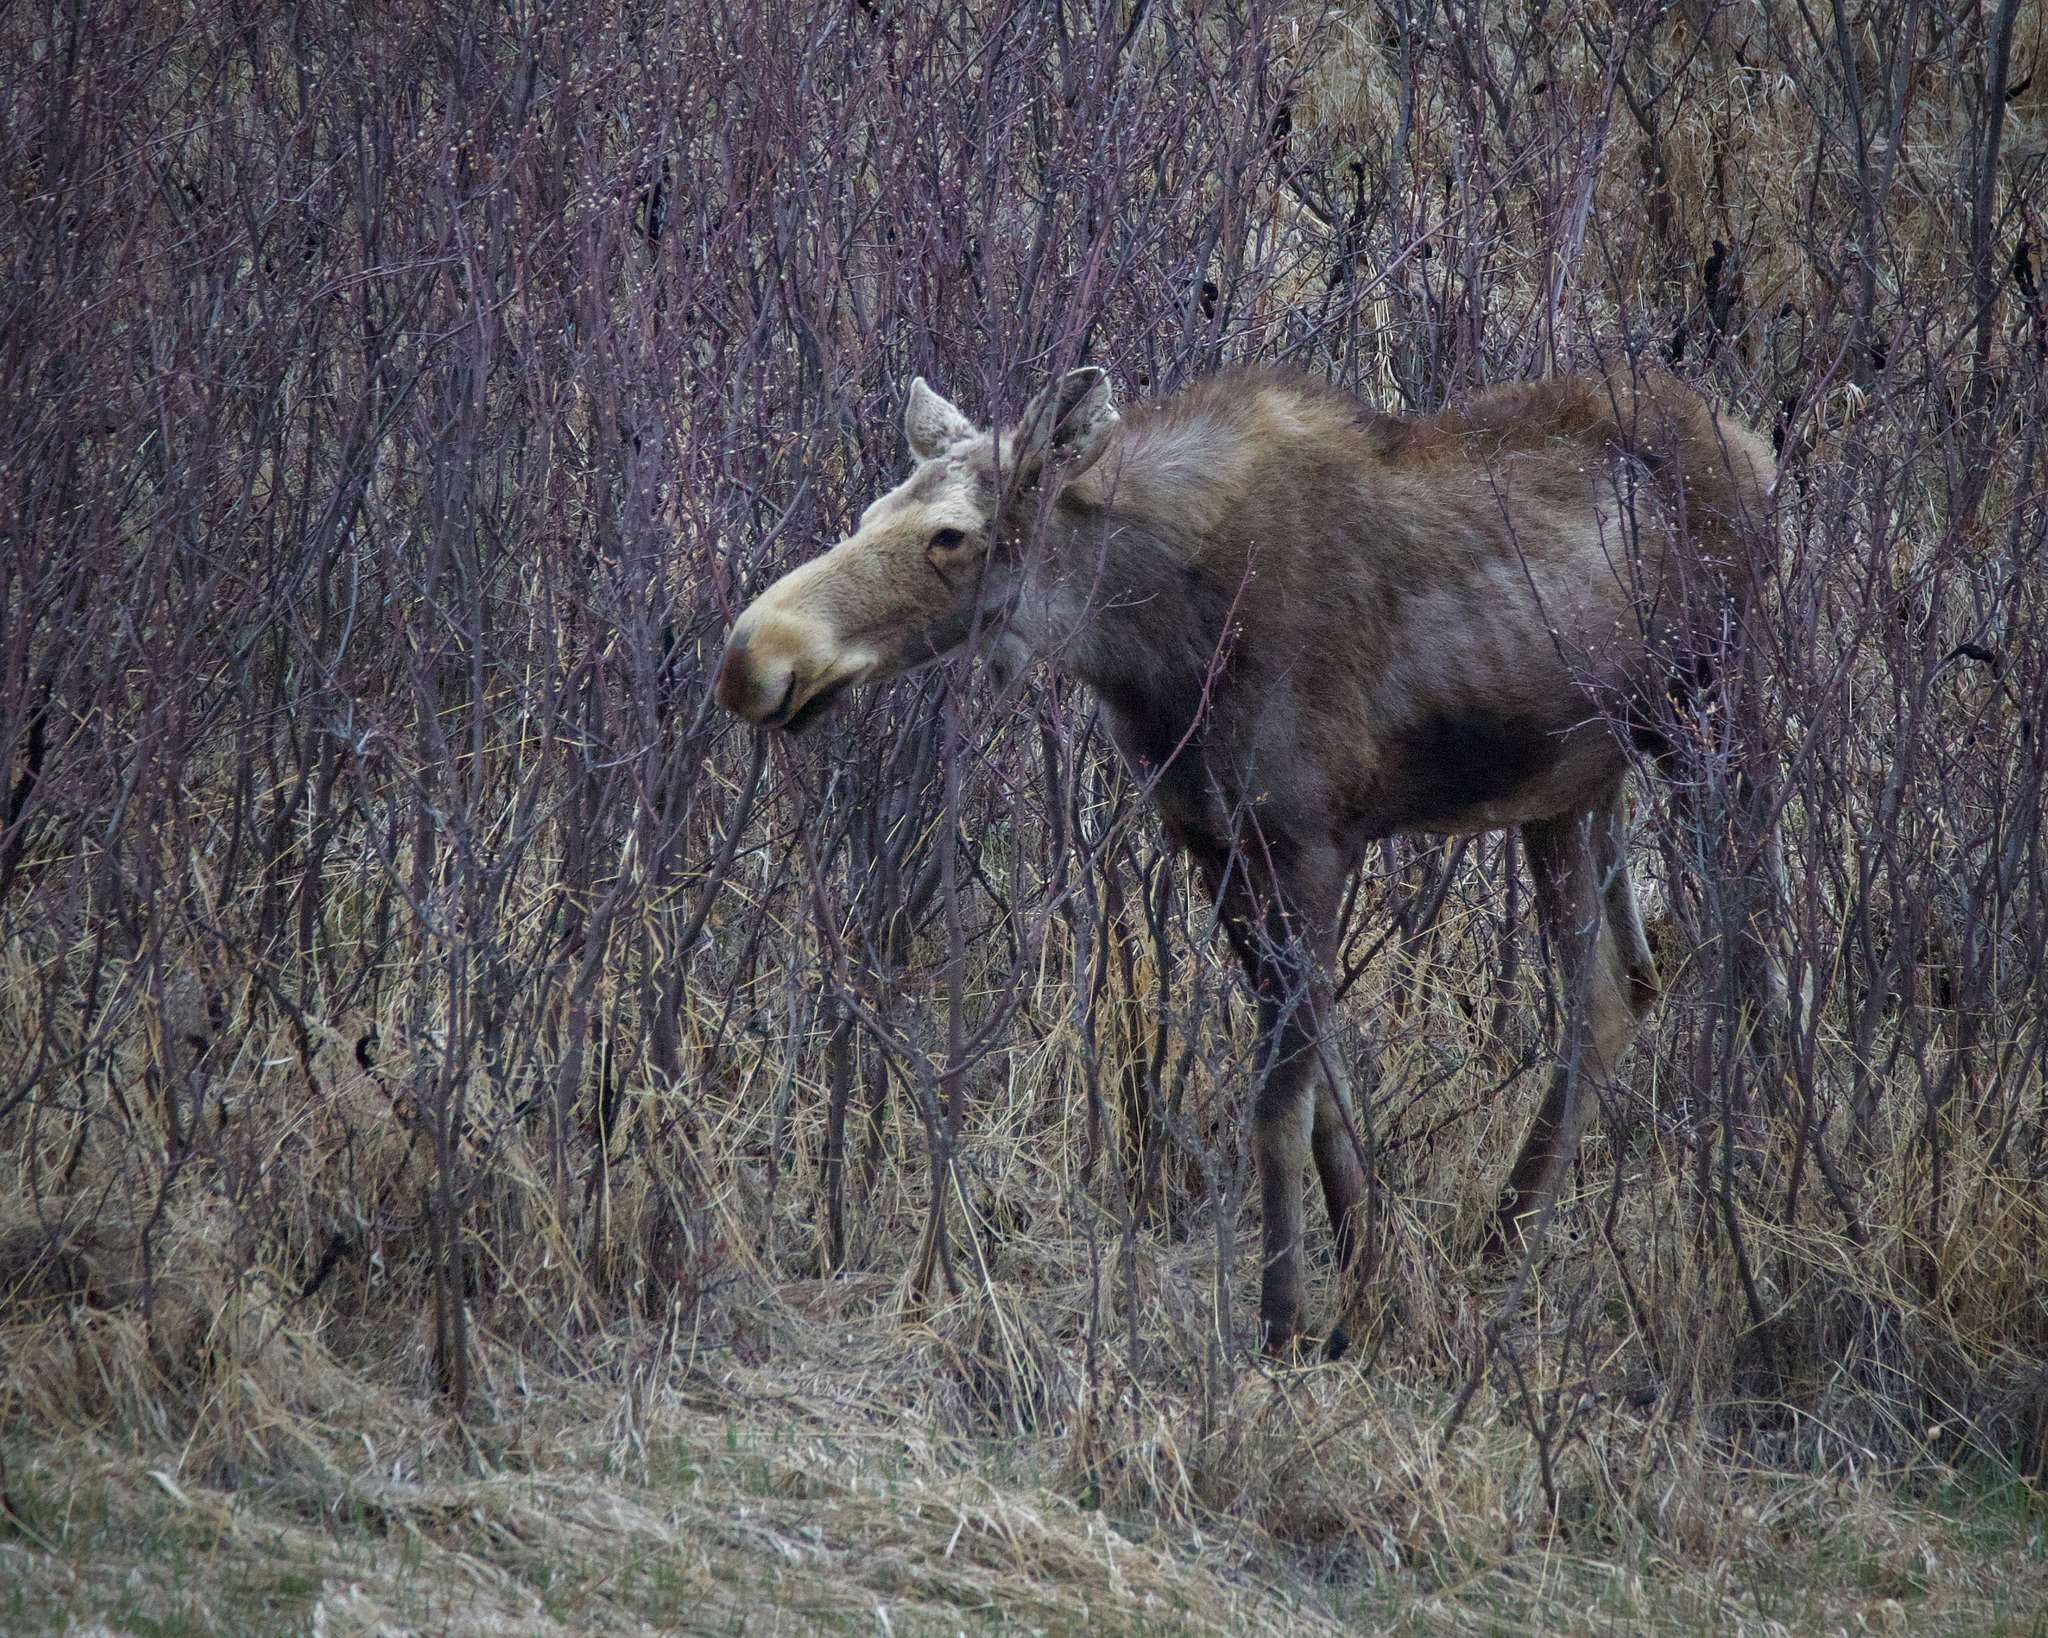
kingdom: Animalia
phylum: Chordata
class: Mammalia
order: Artiodactyla
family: Cervidae
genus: Alces
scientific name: Alces alces
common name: Moose
